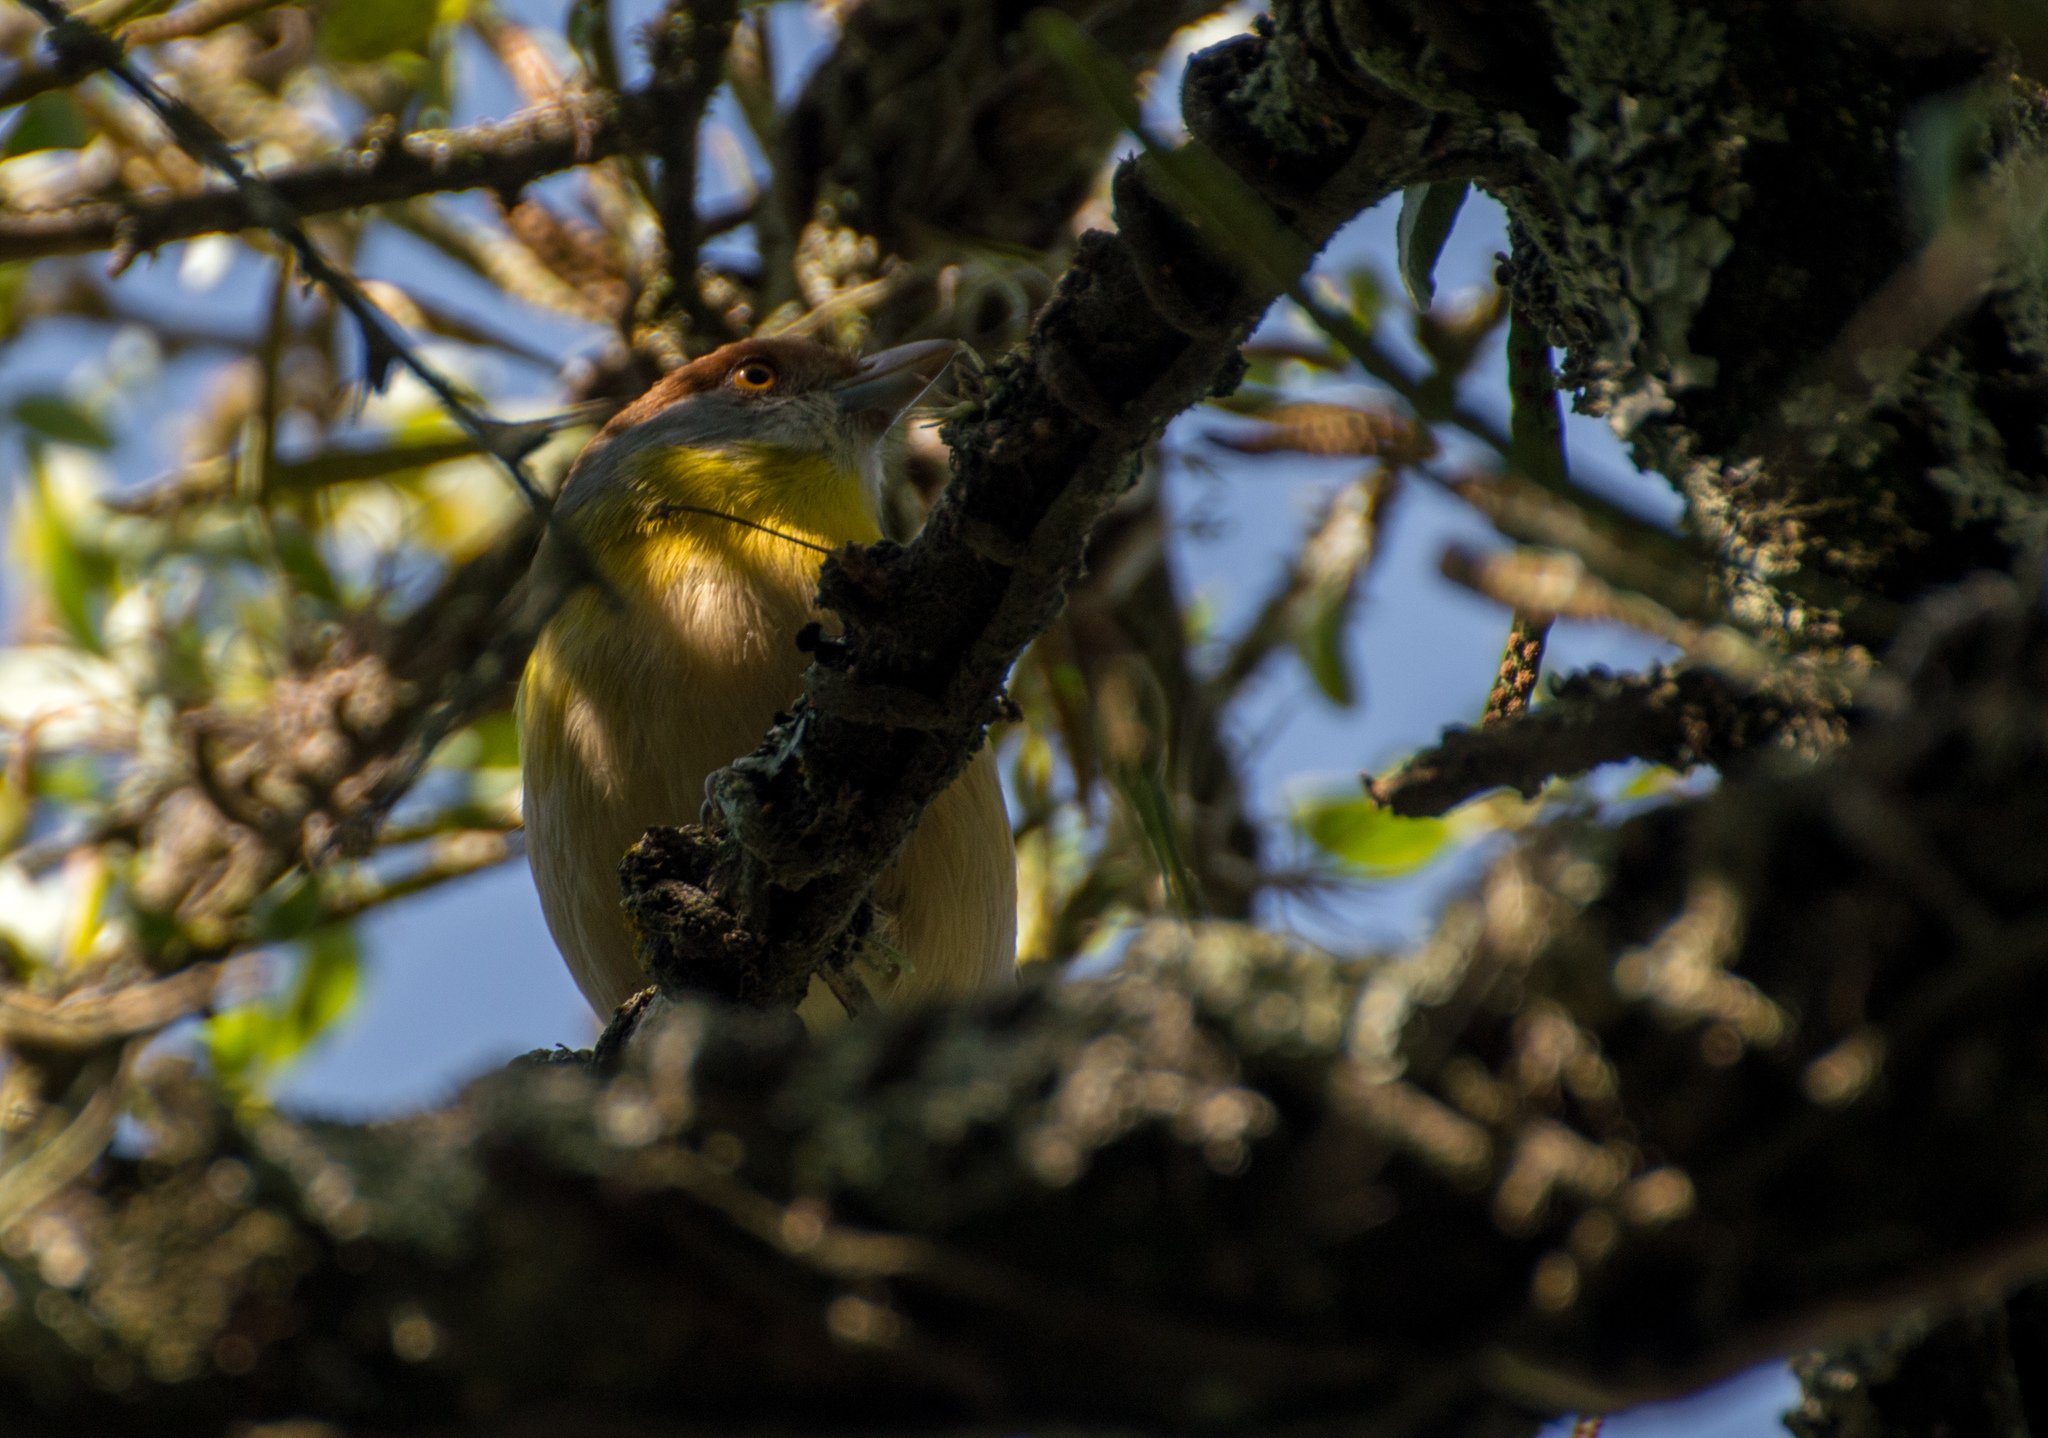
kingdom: Animalia
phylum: Chordata
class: Aves
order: Passeriformes
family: Vireonidae
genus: Cyclarhis
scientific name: Cyclarhis gujanensis
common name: Rufous-browed peppershrike
